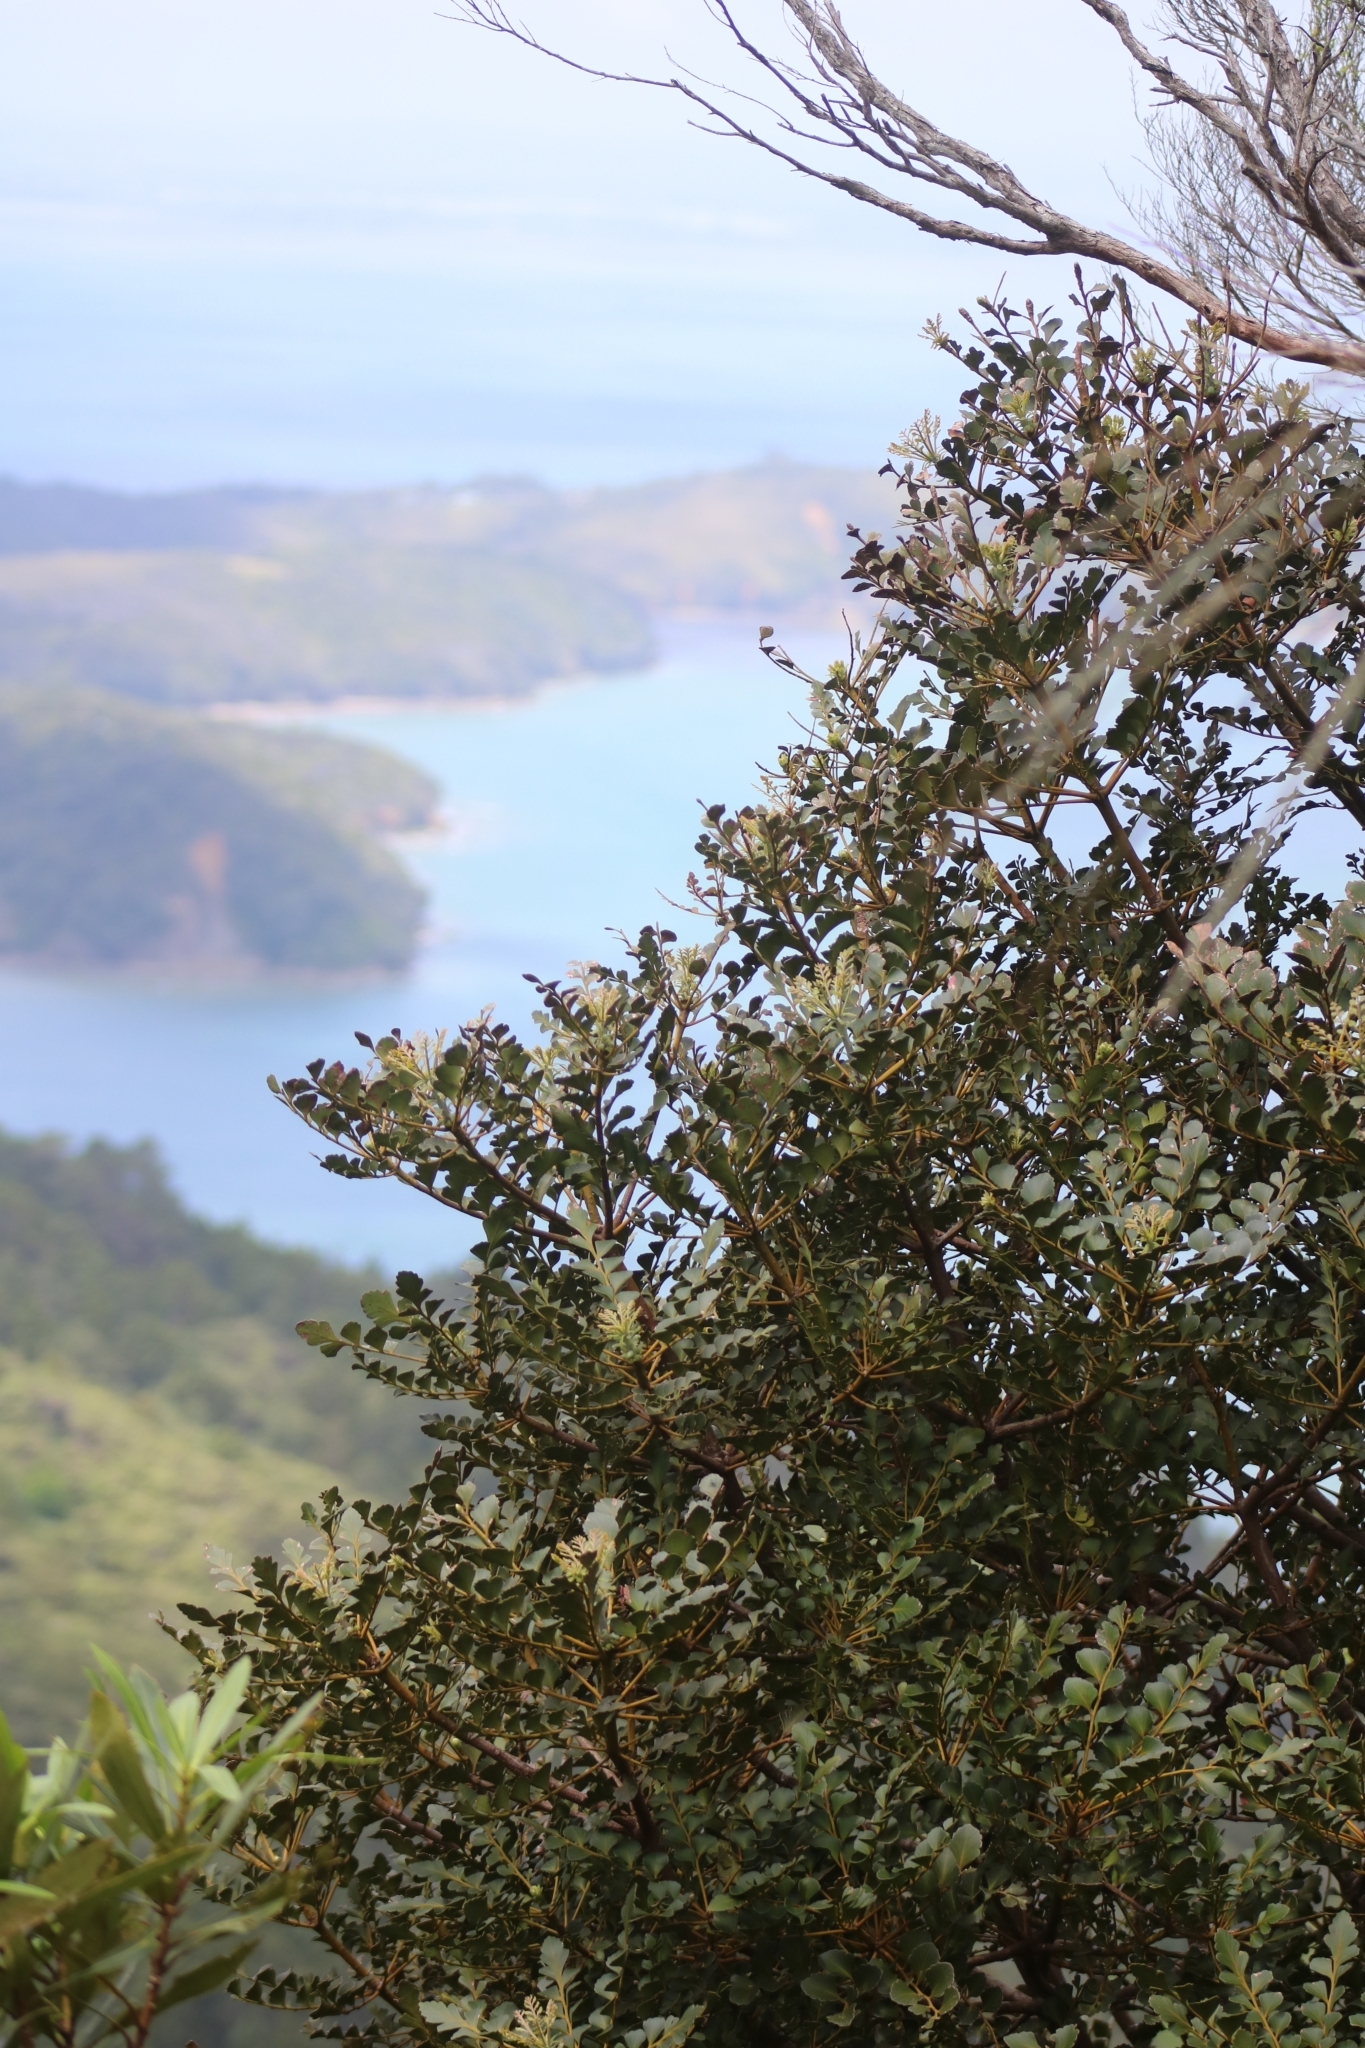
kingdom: Plantae
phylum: Tracheophyta
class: Pinopsida
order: Pinales
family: Phyllocladaceae
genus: Phyllocladus
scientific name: Phyllocladus toatoa
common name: Celery-top pine
